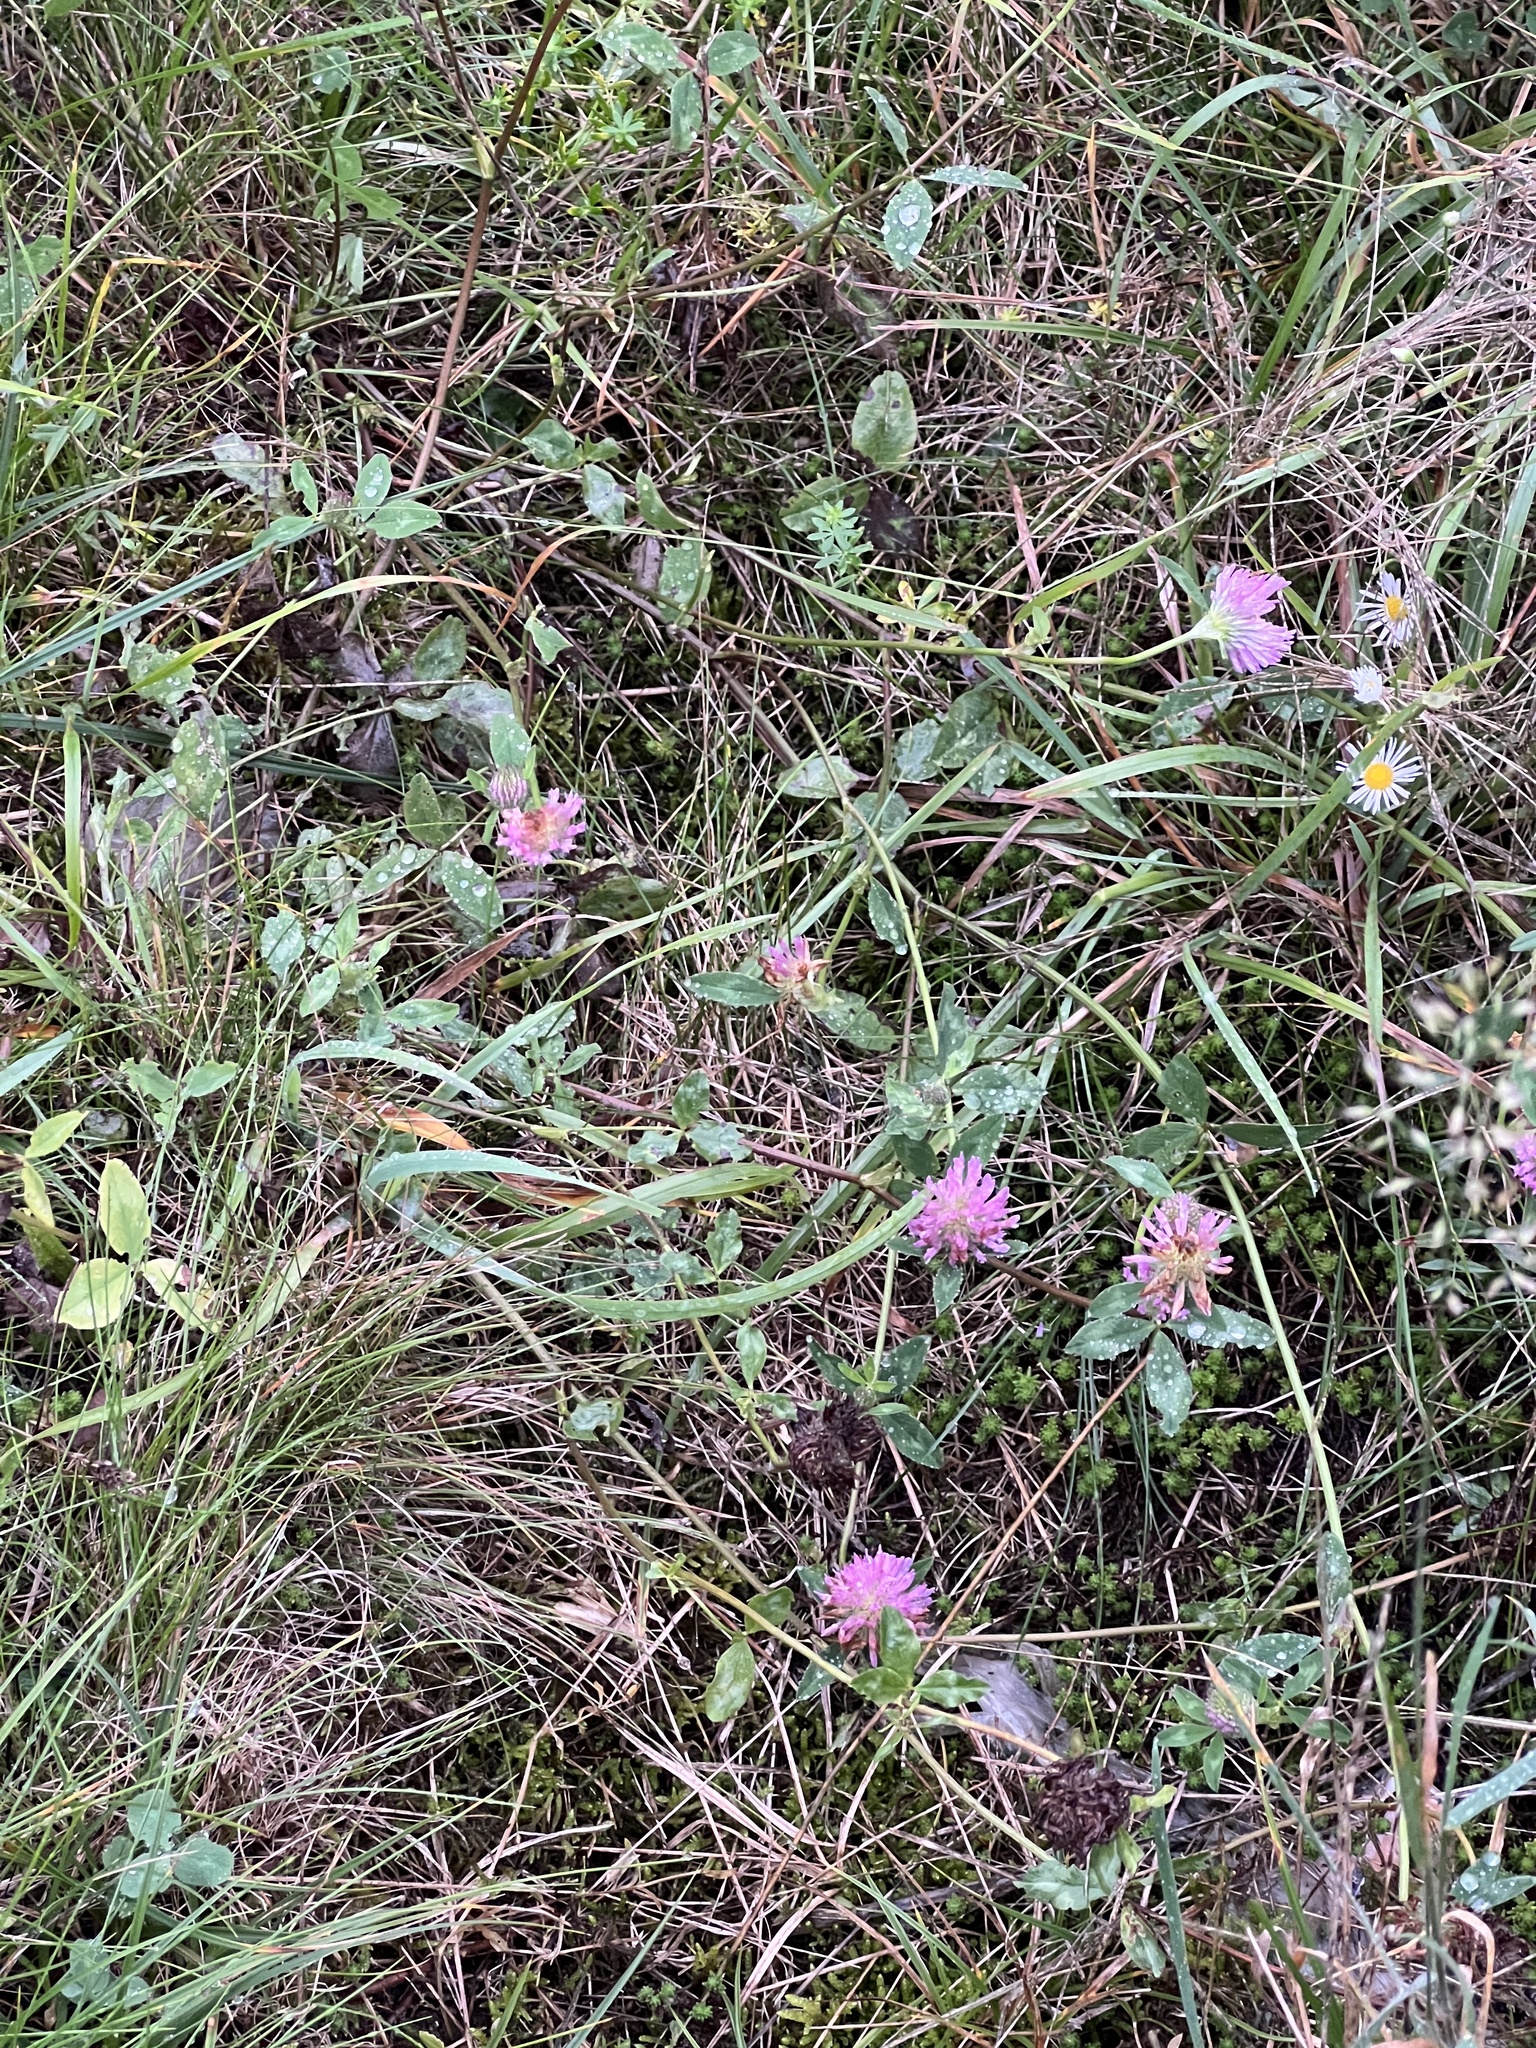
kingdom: Plantae
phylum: Tracheophyta
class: Magnoliopsida
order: Fabales
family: Fabaceae
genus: Trifolium
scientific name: Trifolium pratense
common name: Red clover
